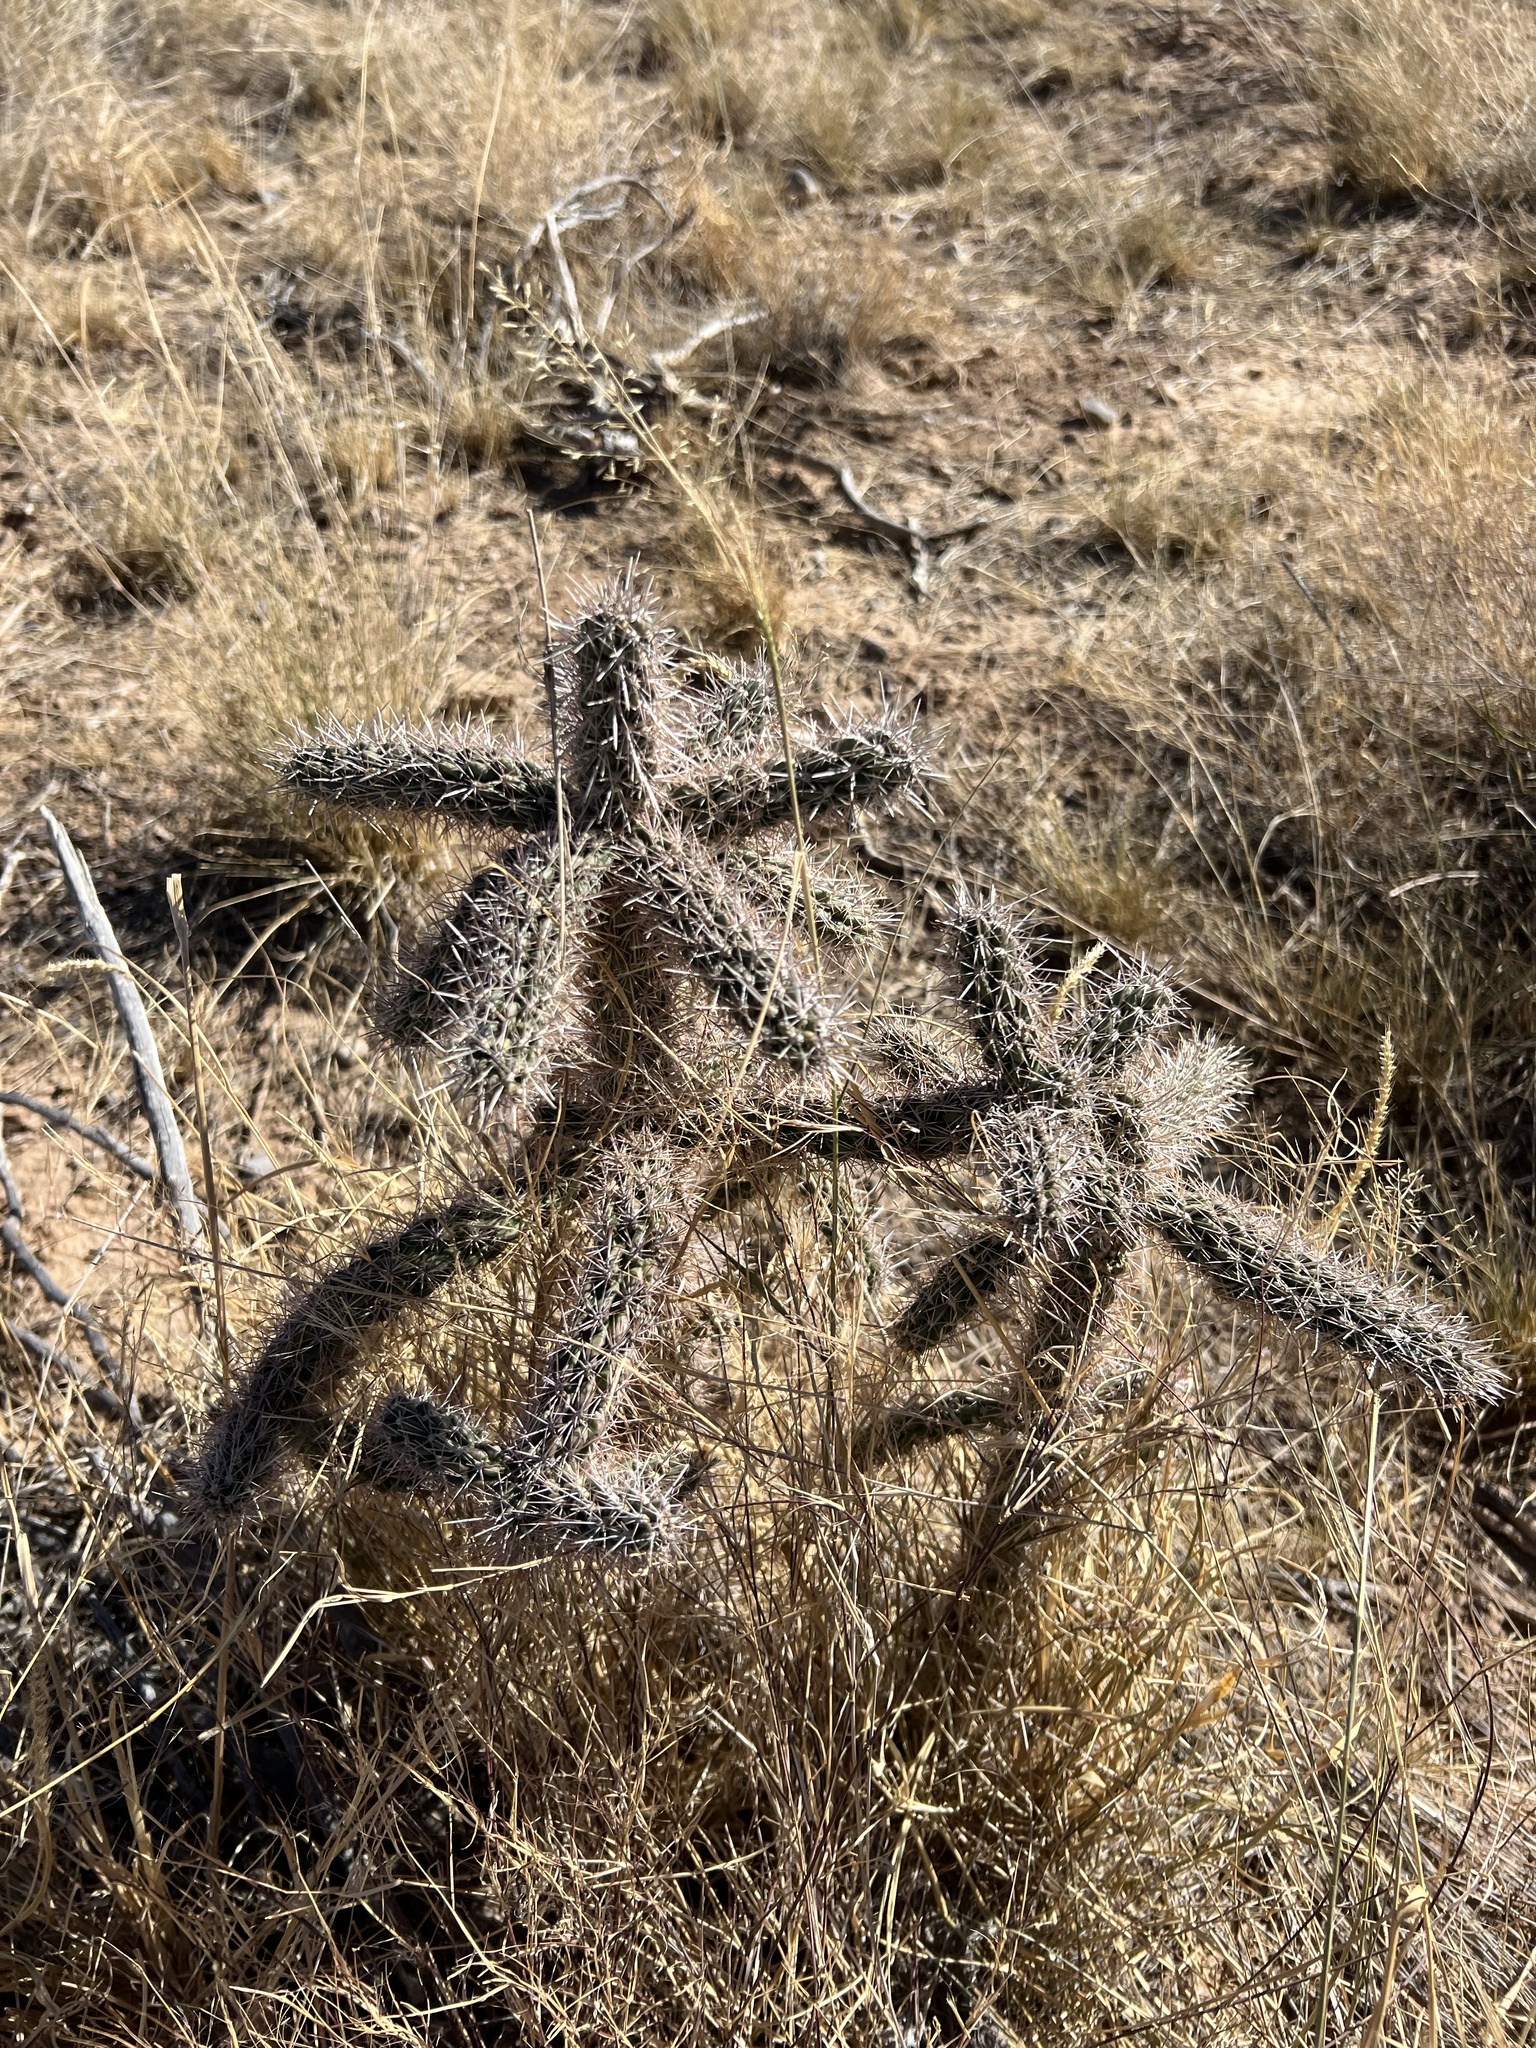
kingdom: Plantae
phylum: Tracheophyta
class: Magnoliopsida
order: Caryophyllales
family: Cactaceae
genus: Cylindropuntia
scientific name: Cylindropuntia imbricata
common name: Candelabrum cactus
